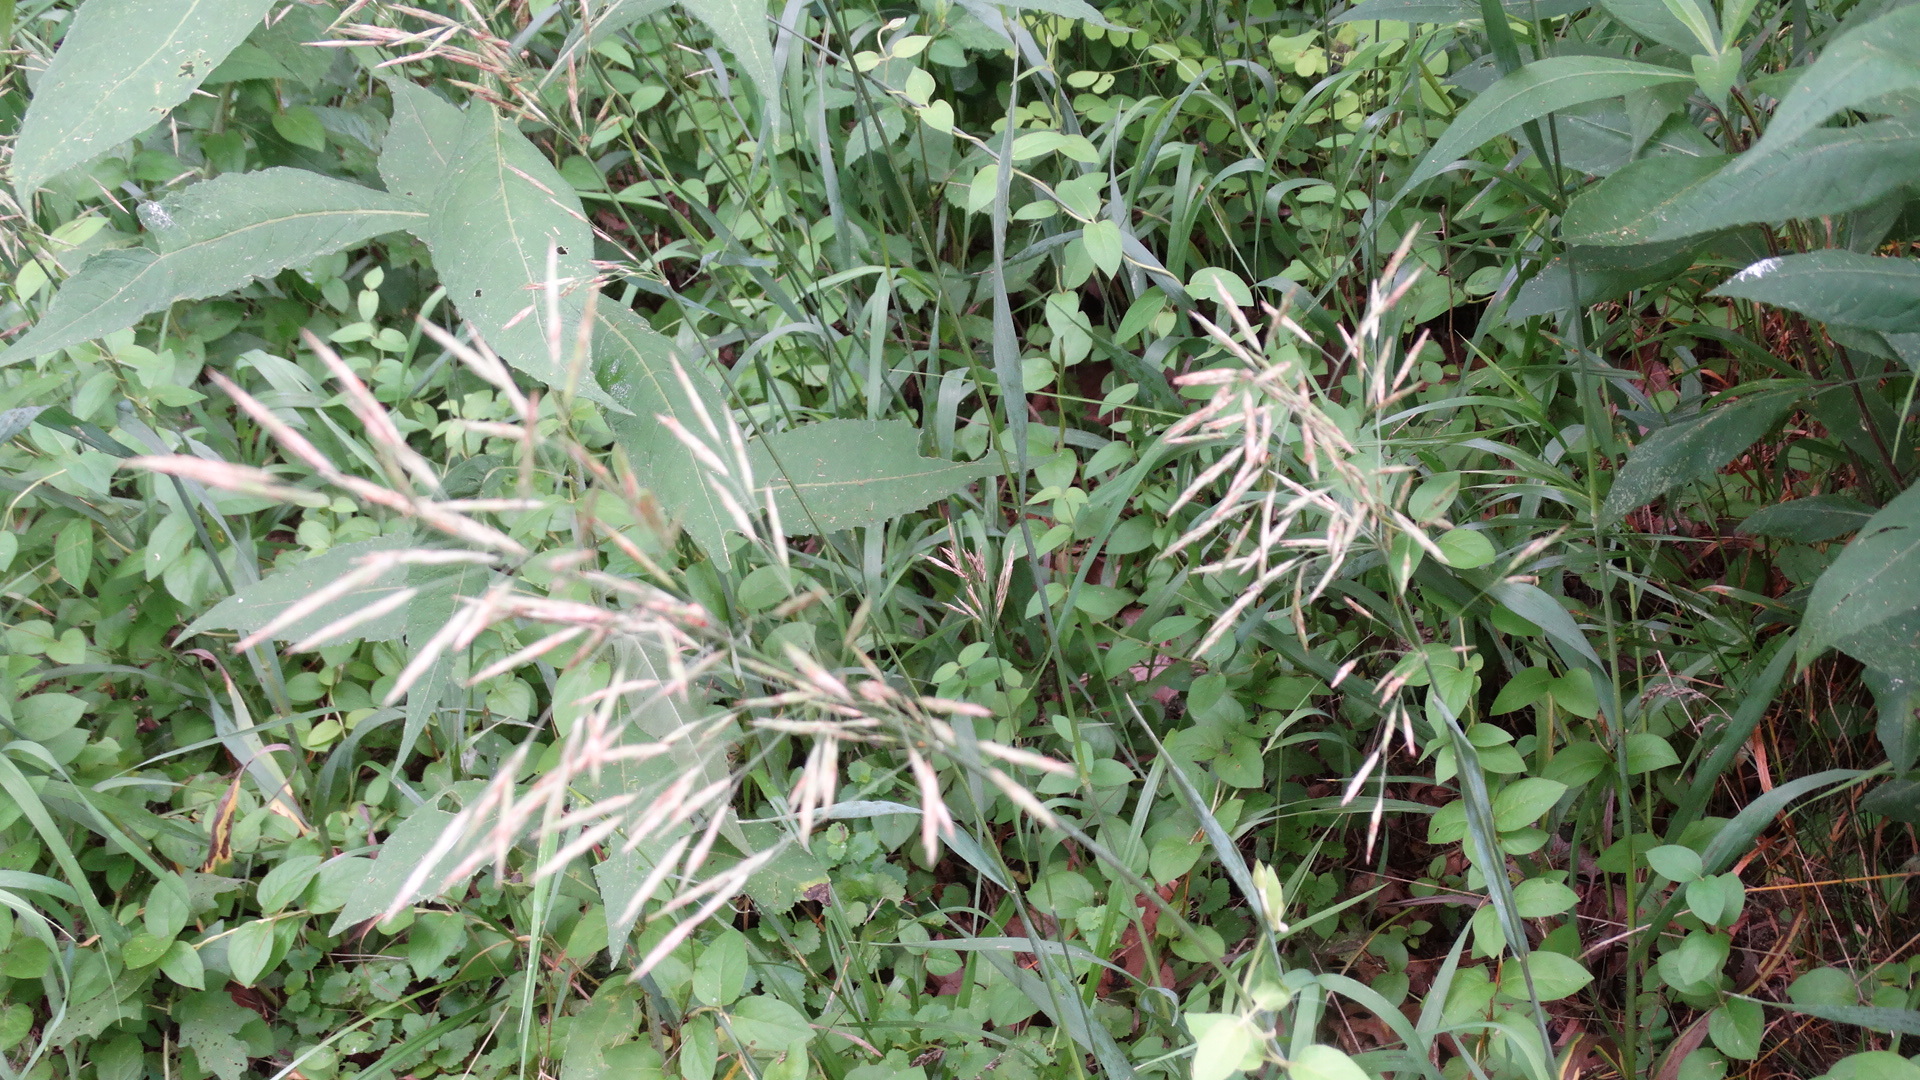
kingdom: Plantae
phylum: Tracheophyta
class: Liliopsida
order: Poales
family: Poaceae
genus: Bromus
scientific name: Bromus inermis
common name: Smooth brome
